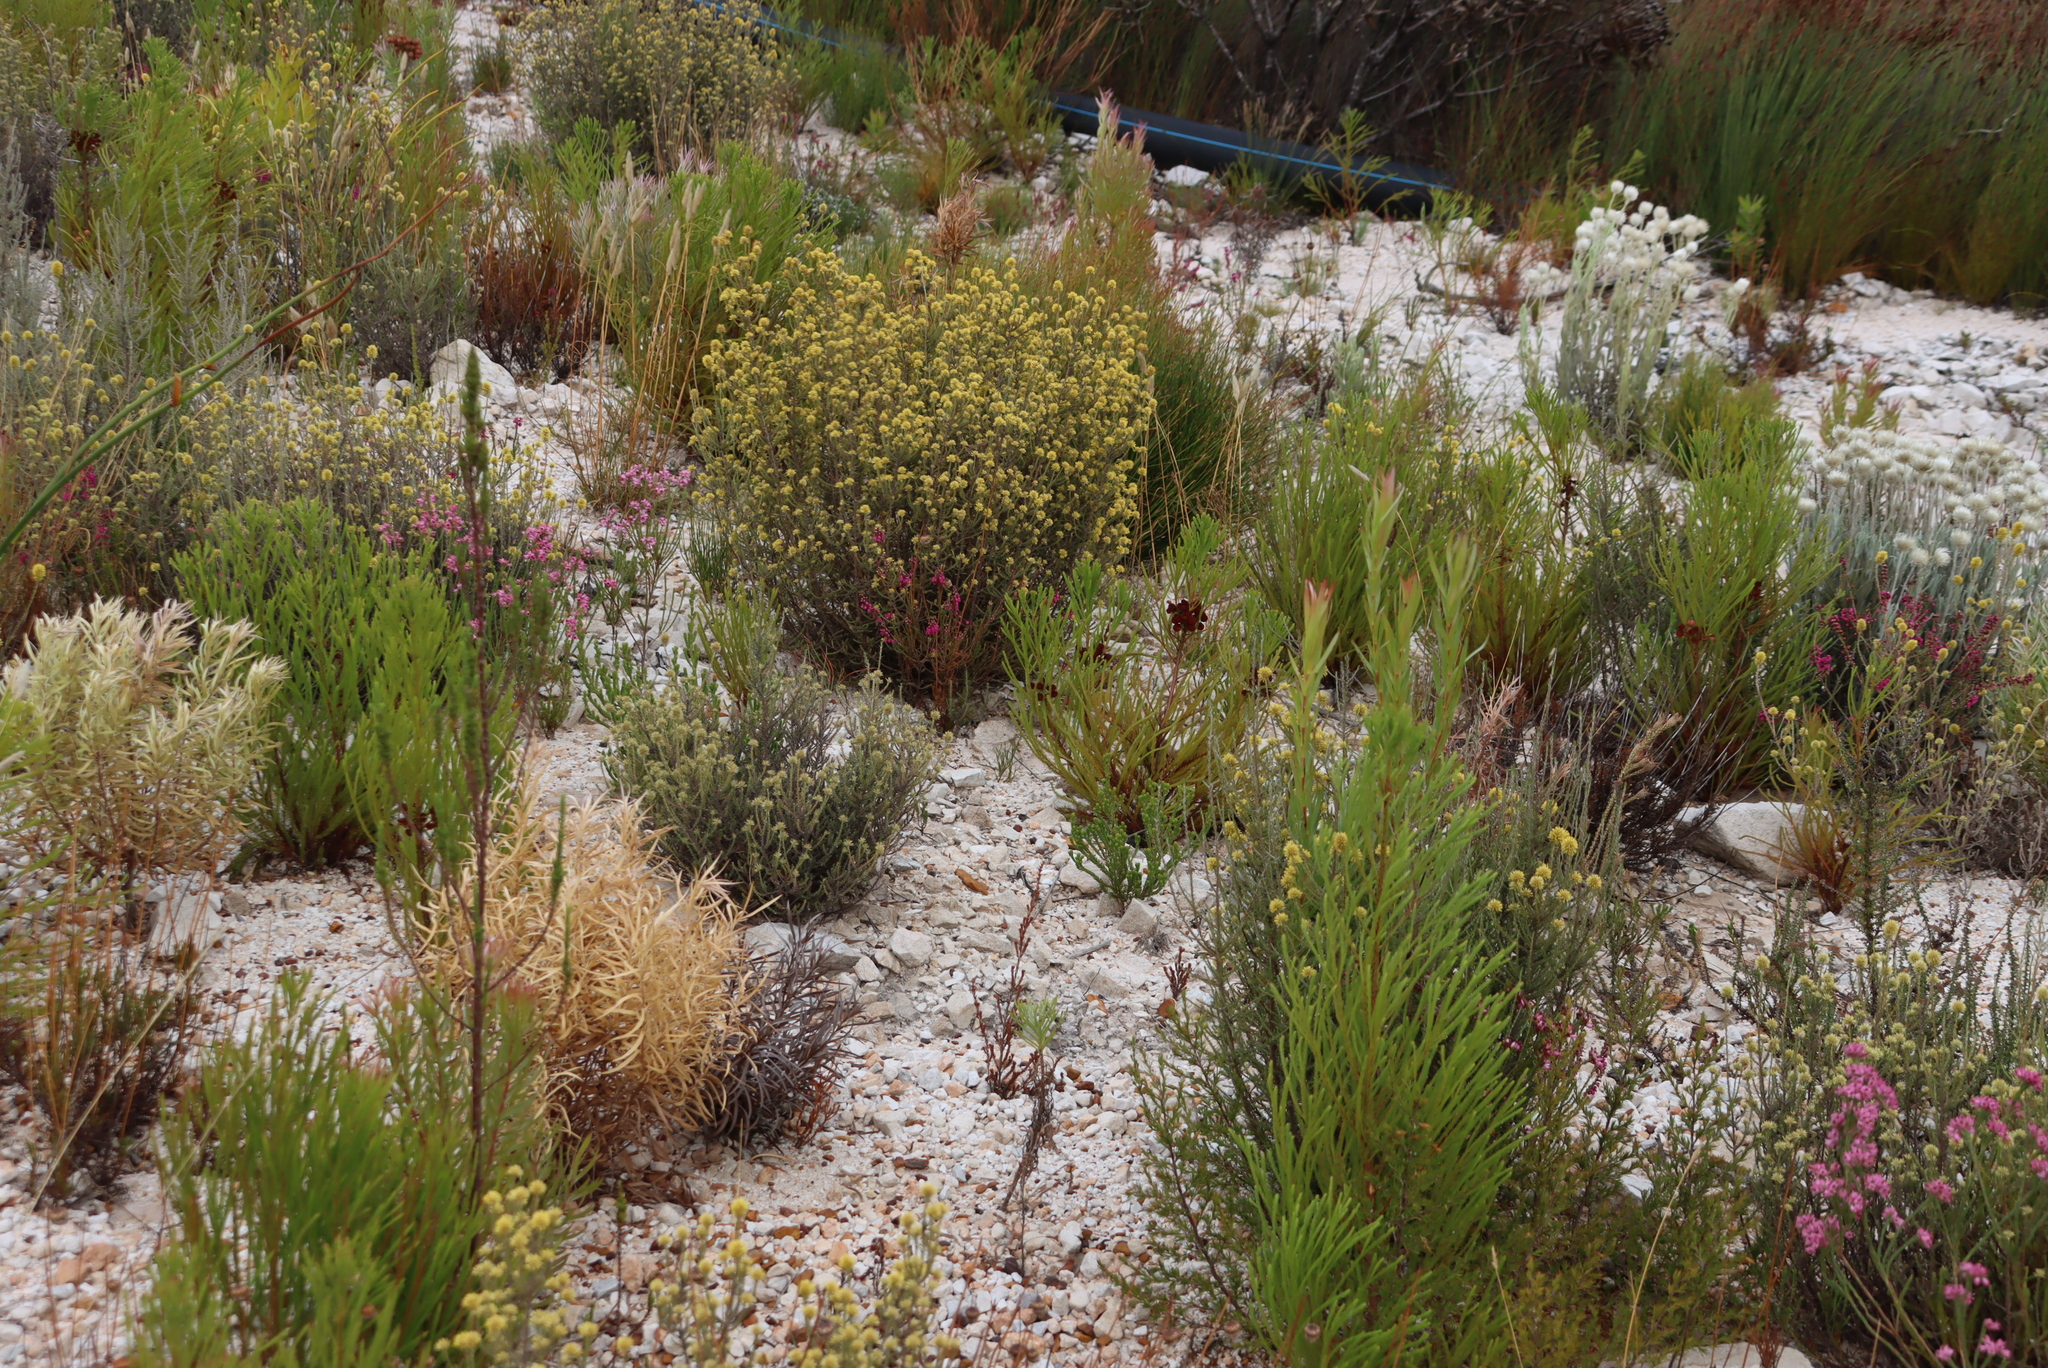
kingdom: Plantae
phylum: Tracheophyta
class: Magnoliopsida
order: Ericales
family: Ericaceae
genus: Erica
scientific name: Erica pulchella
